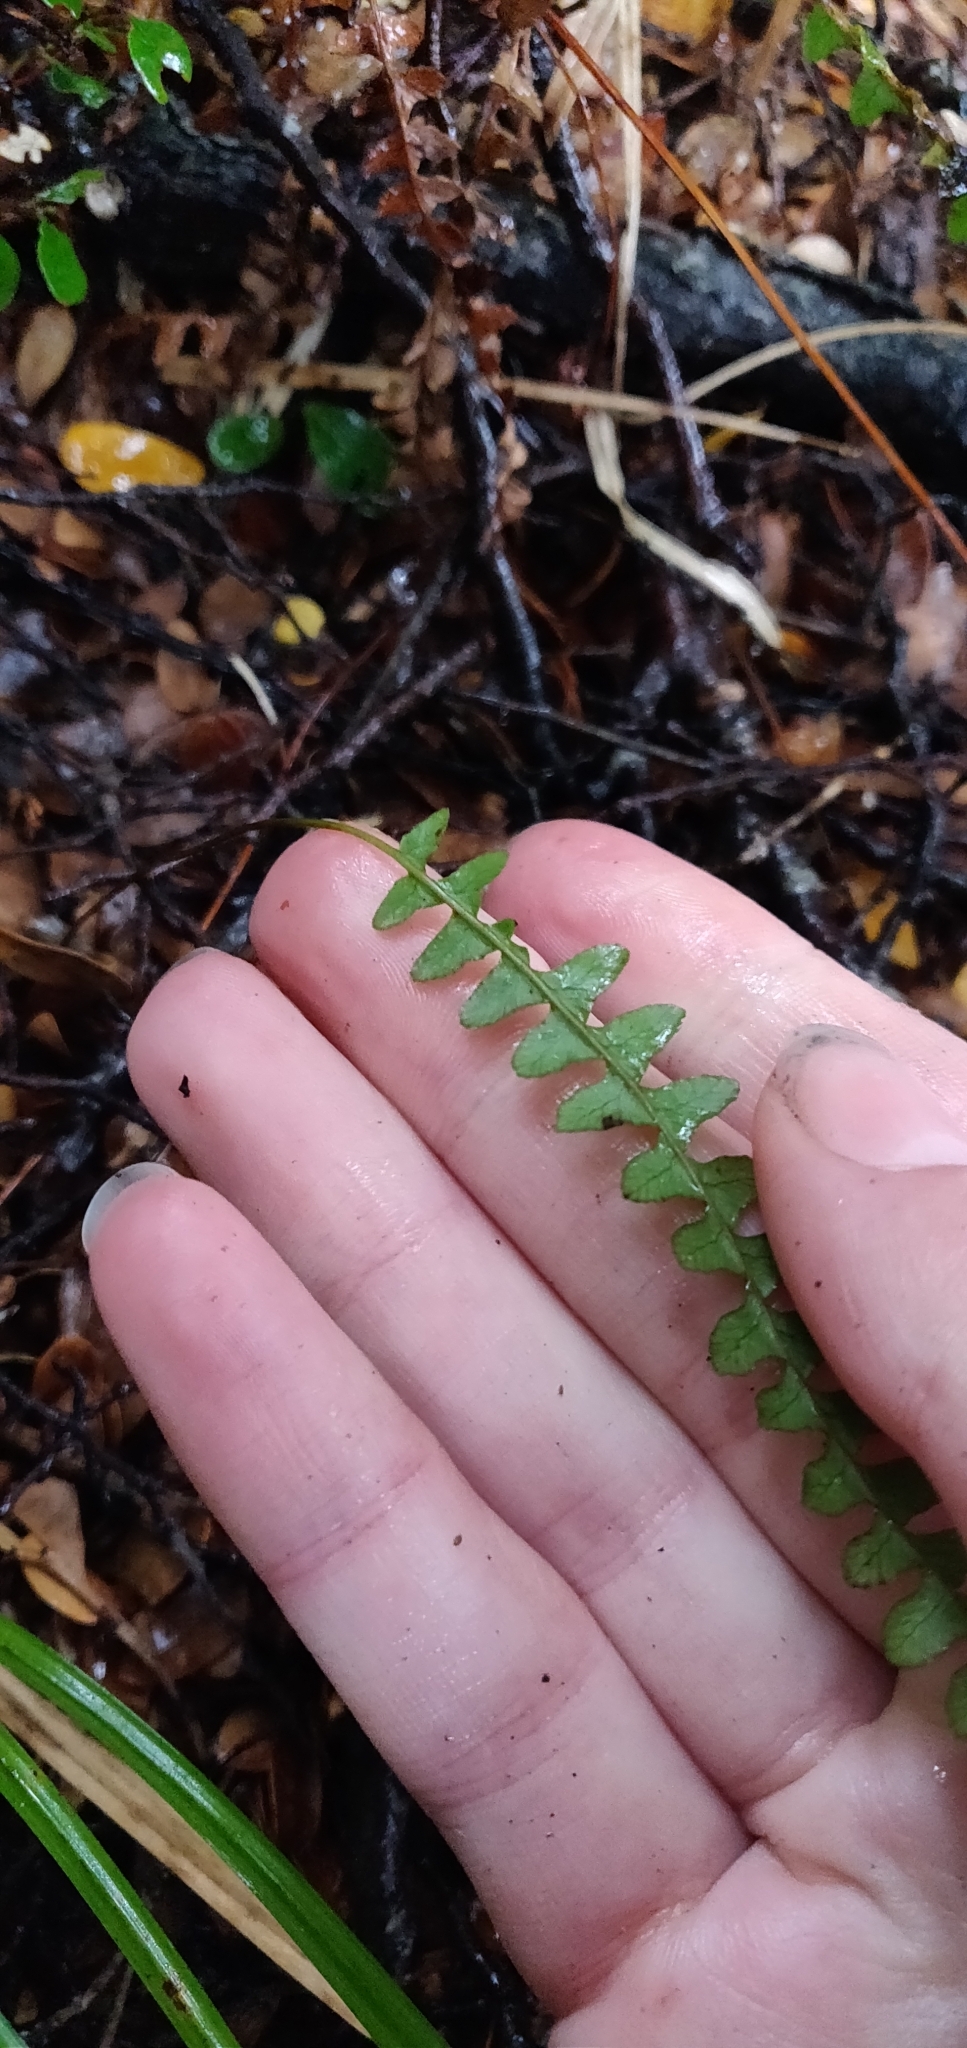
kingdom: Plantae
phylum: Tracheophyta
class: Polypodiopsida
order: Polypodiales
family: Blechnaceae
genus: Austroblechnum
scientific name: Austroblechnum penna-marina
